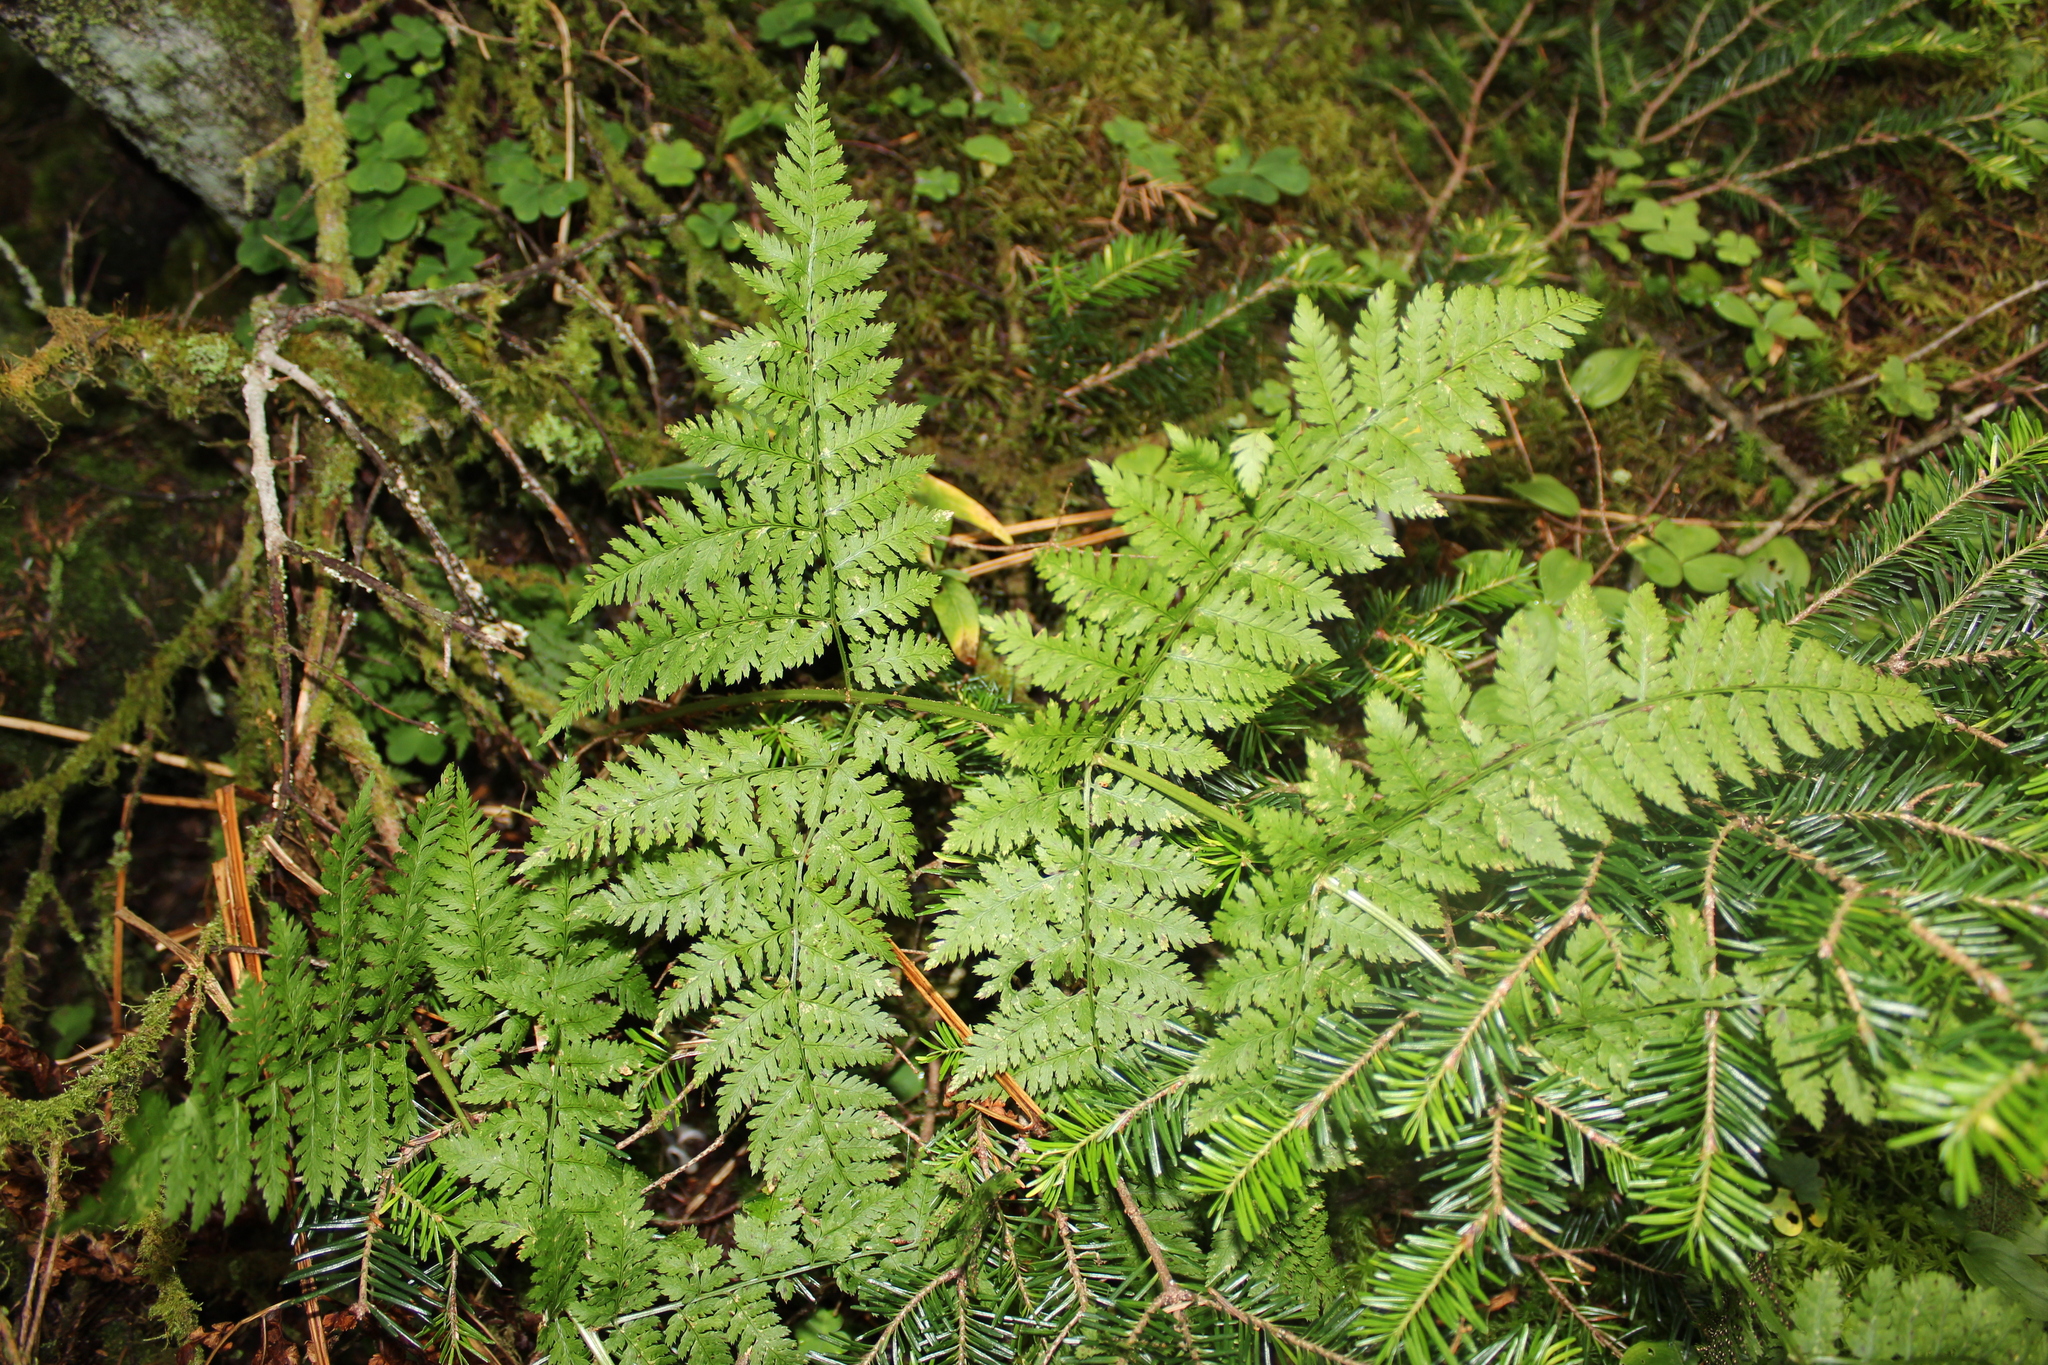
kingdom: Plantae
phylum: Tracheophyta
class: Polypodiopsida
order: Polypodiales
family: Dryopteridaceae
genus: Dryopteris
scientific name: Dryopteris campyloptera
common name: Mountain wood fern
